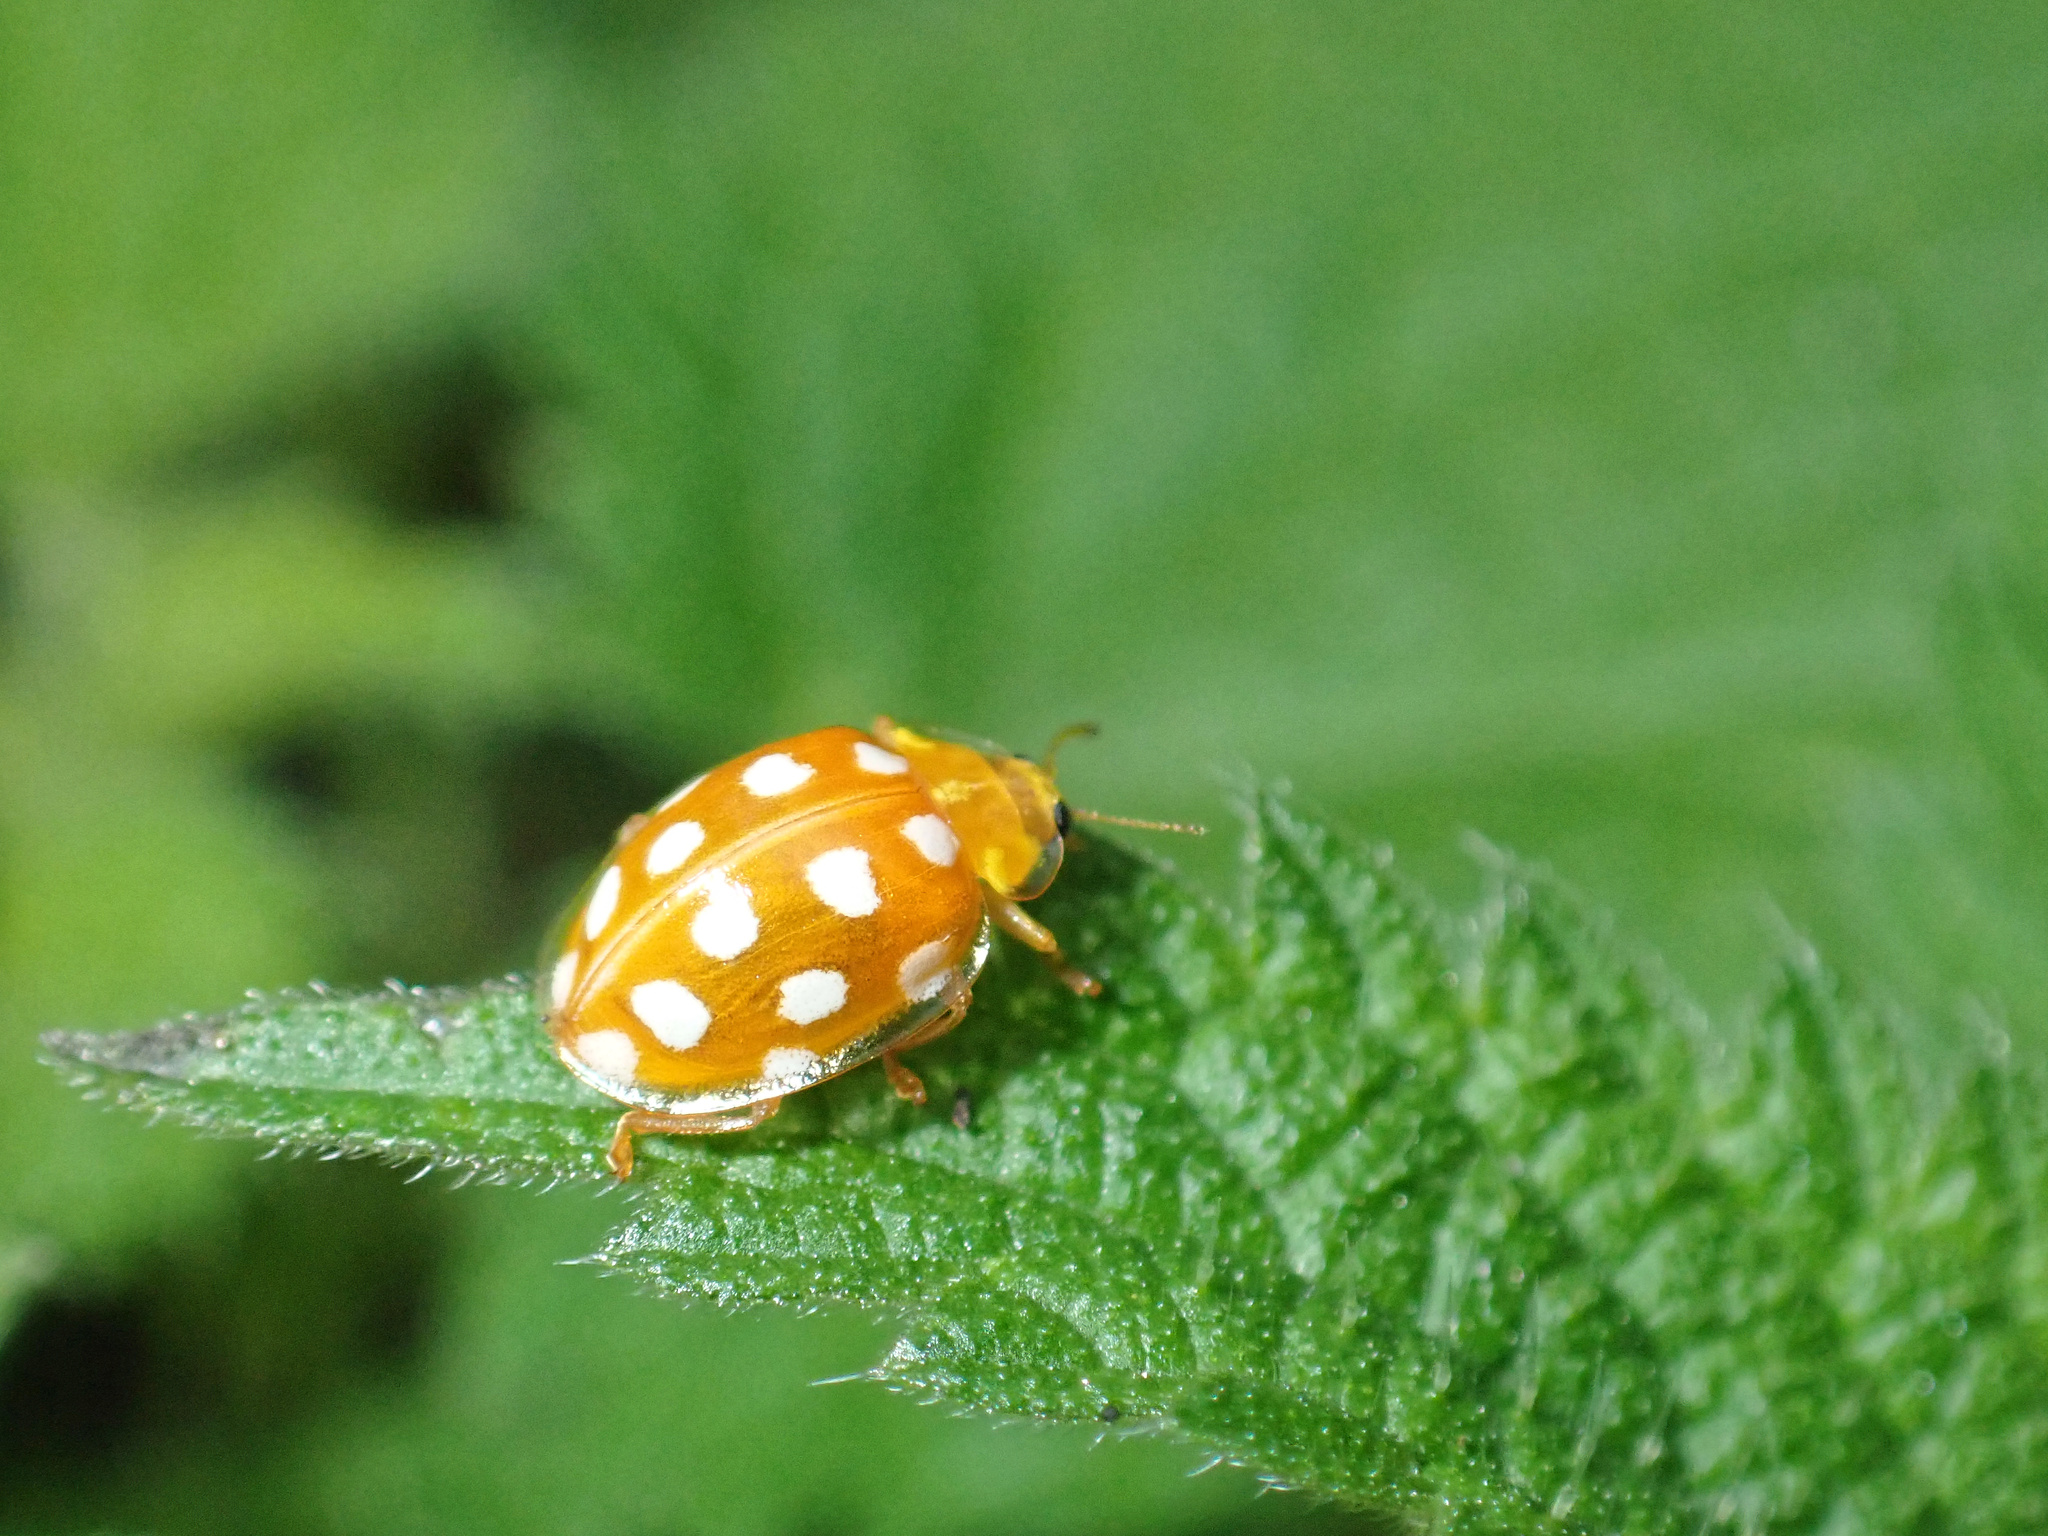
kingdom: Animalia
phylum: Arthropoda
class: Insecta
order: Coleoptera
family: Coccinellidae
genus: Halyzia
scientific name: Halyzia sedecimguttata
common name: Orange ladybird
